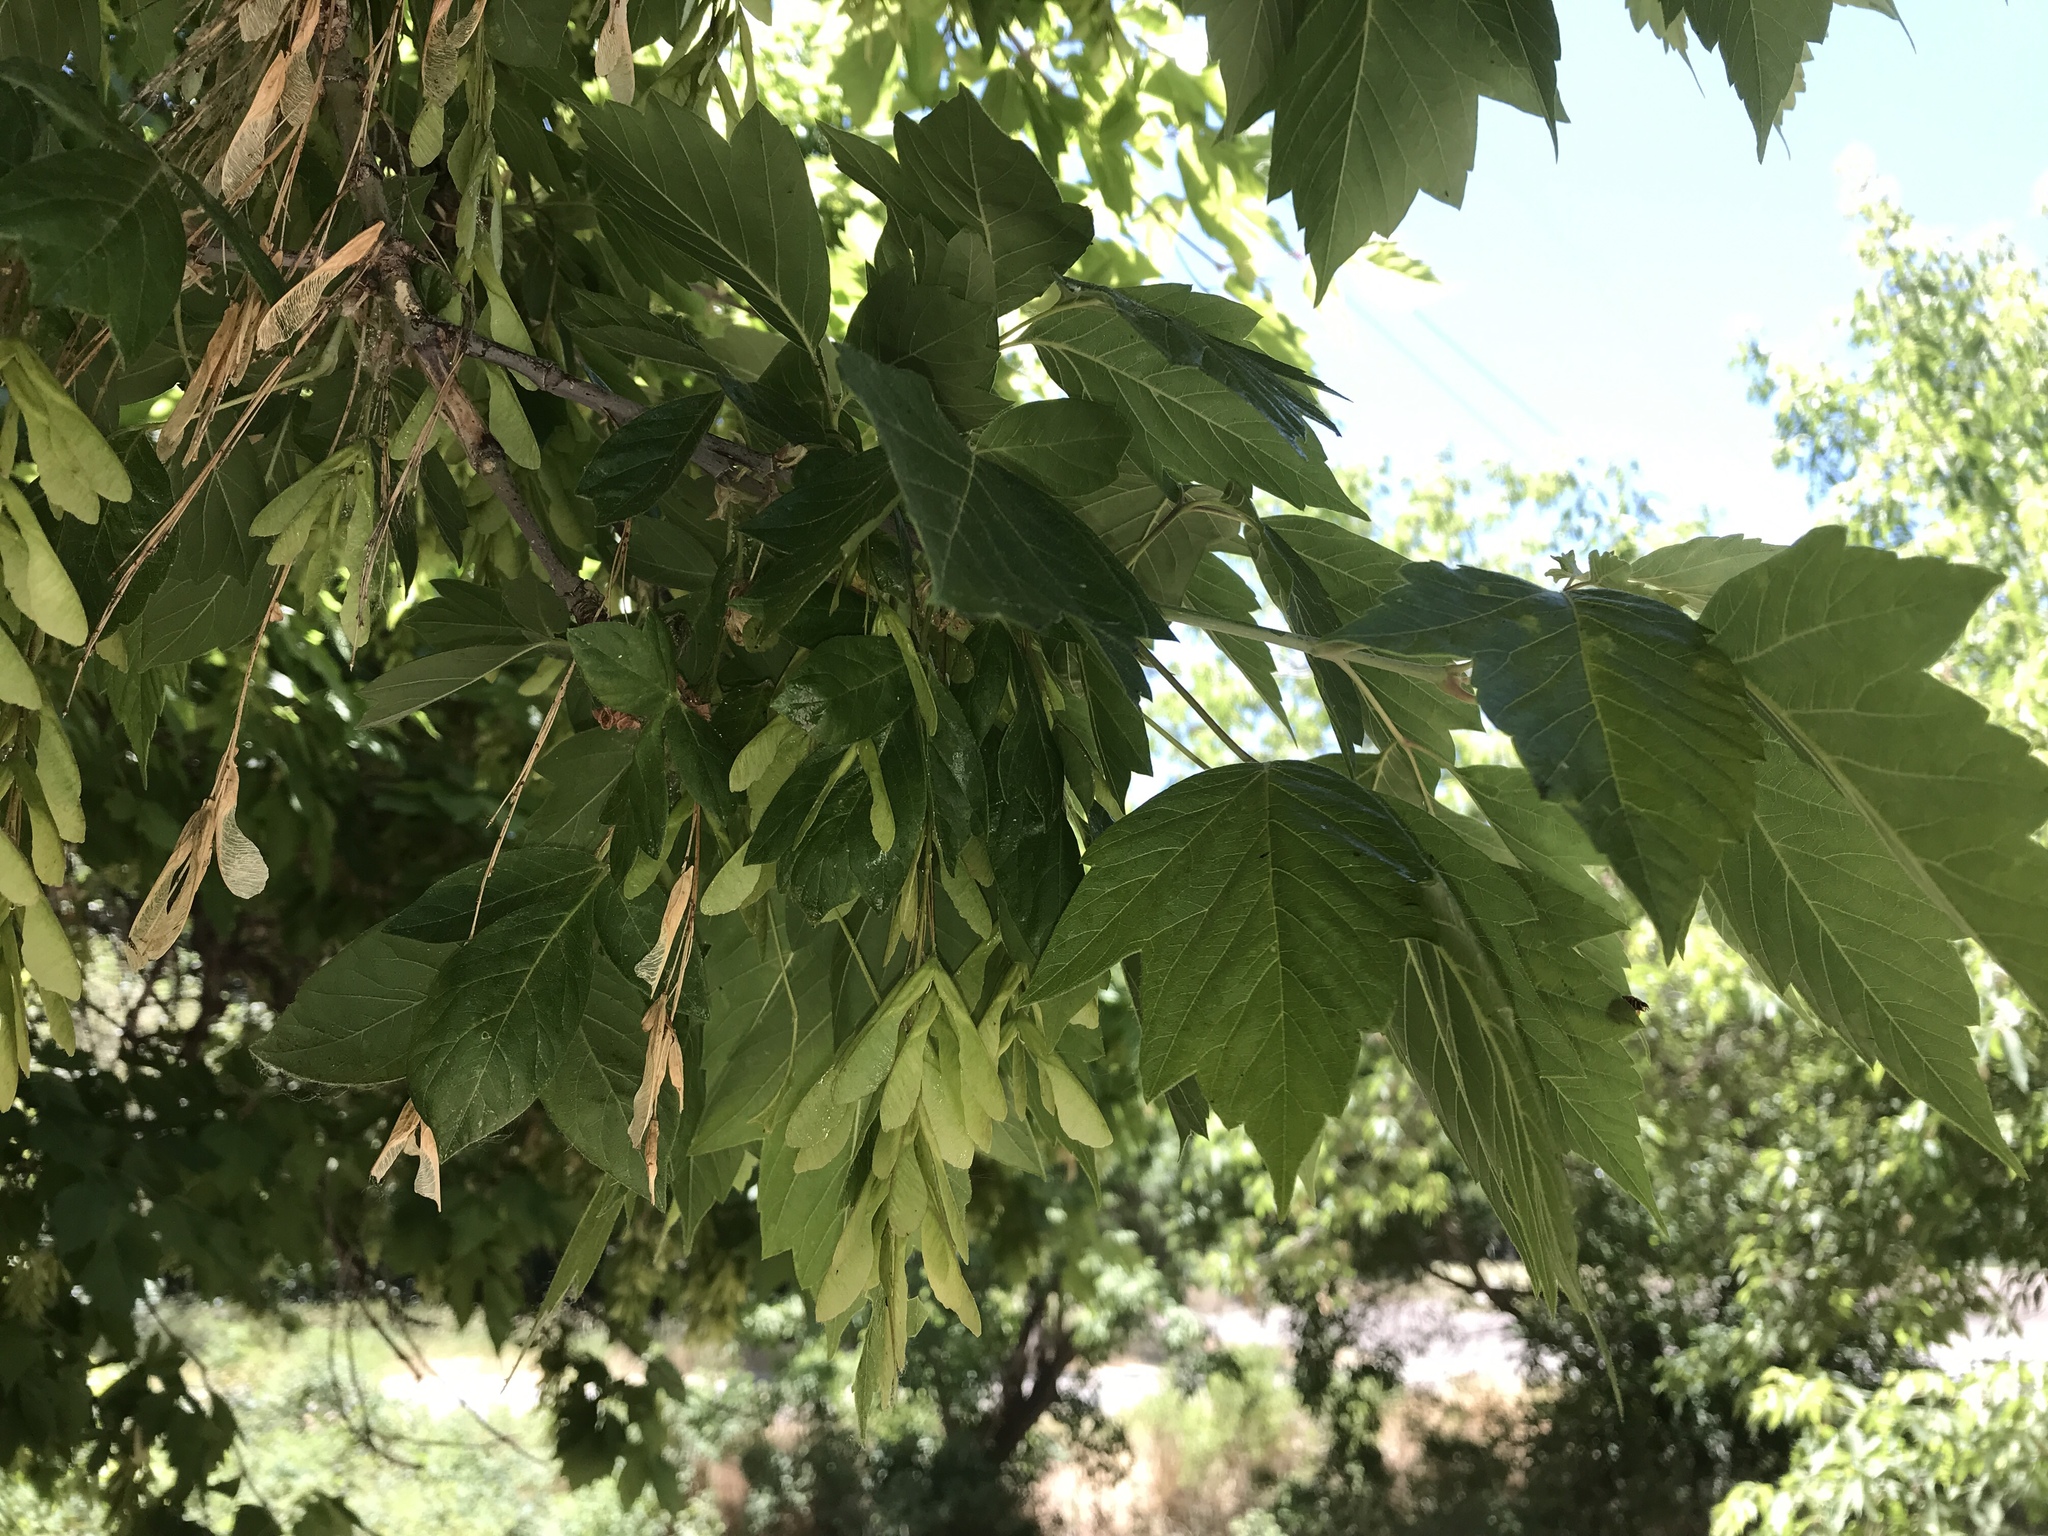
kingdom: Plantae
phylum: Tracheophyta
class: Magnoliopsida
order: Sapindales
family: Sapindaceae
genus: Acer
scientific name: Acer negundo
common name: Ashleaf maple
